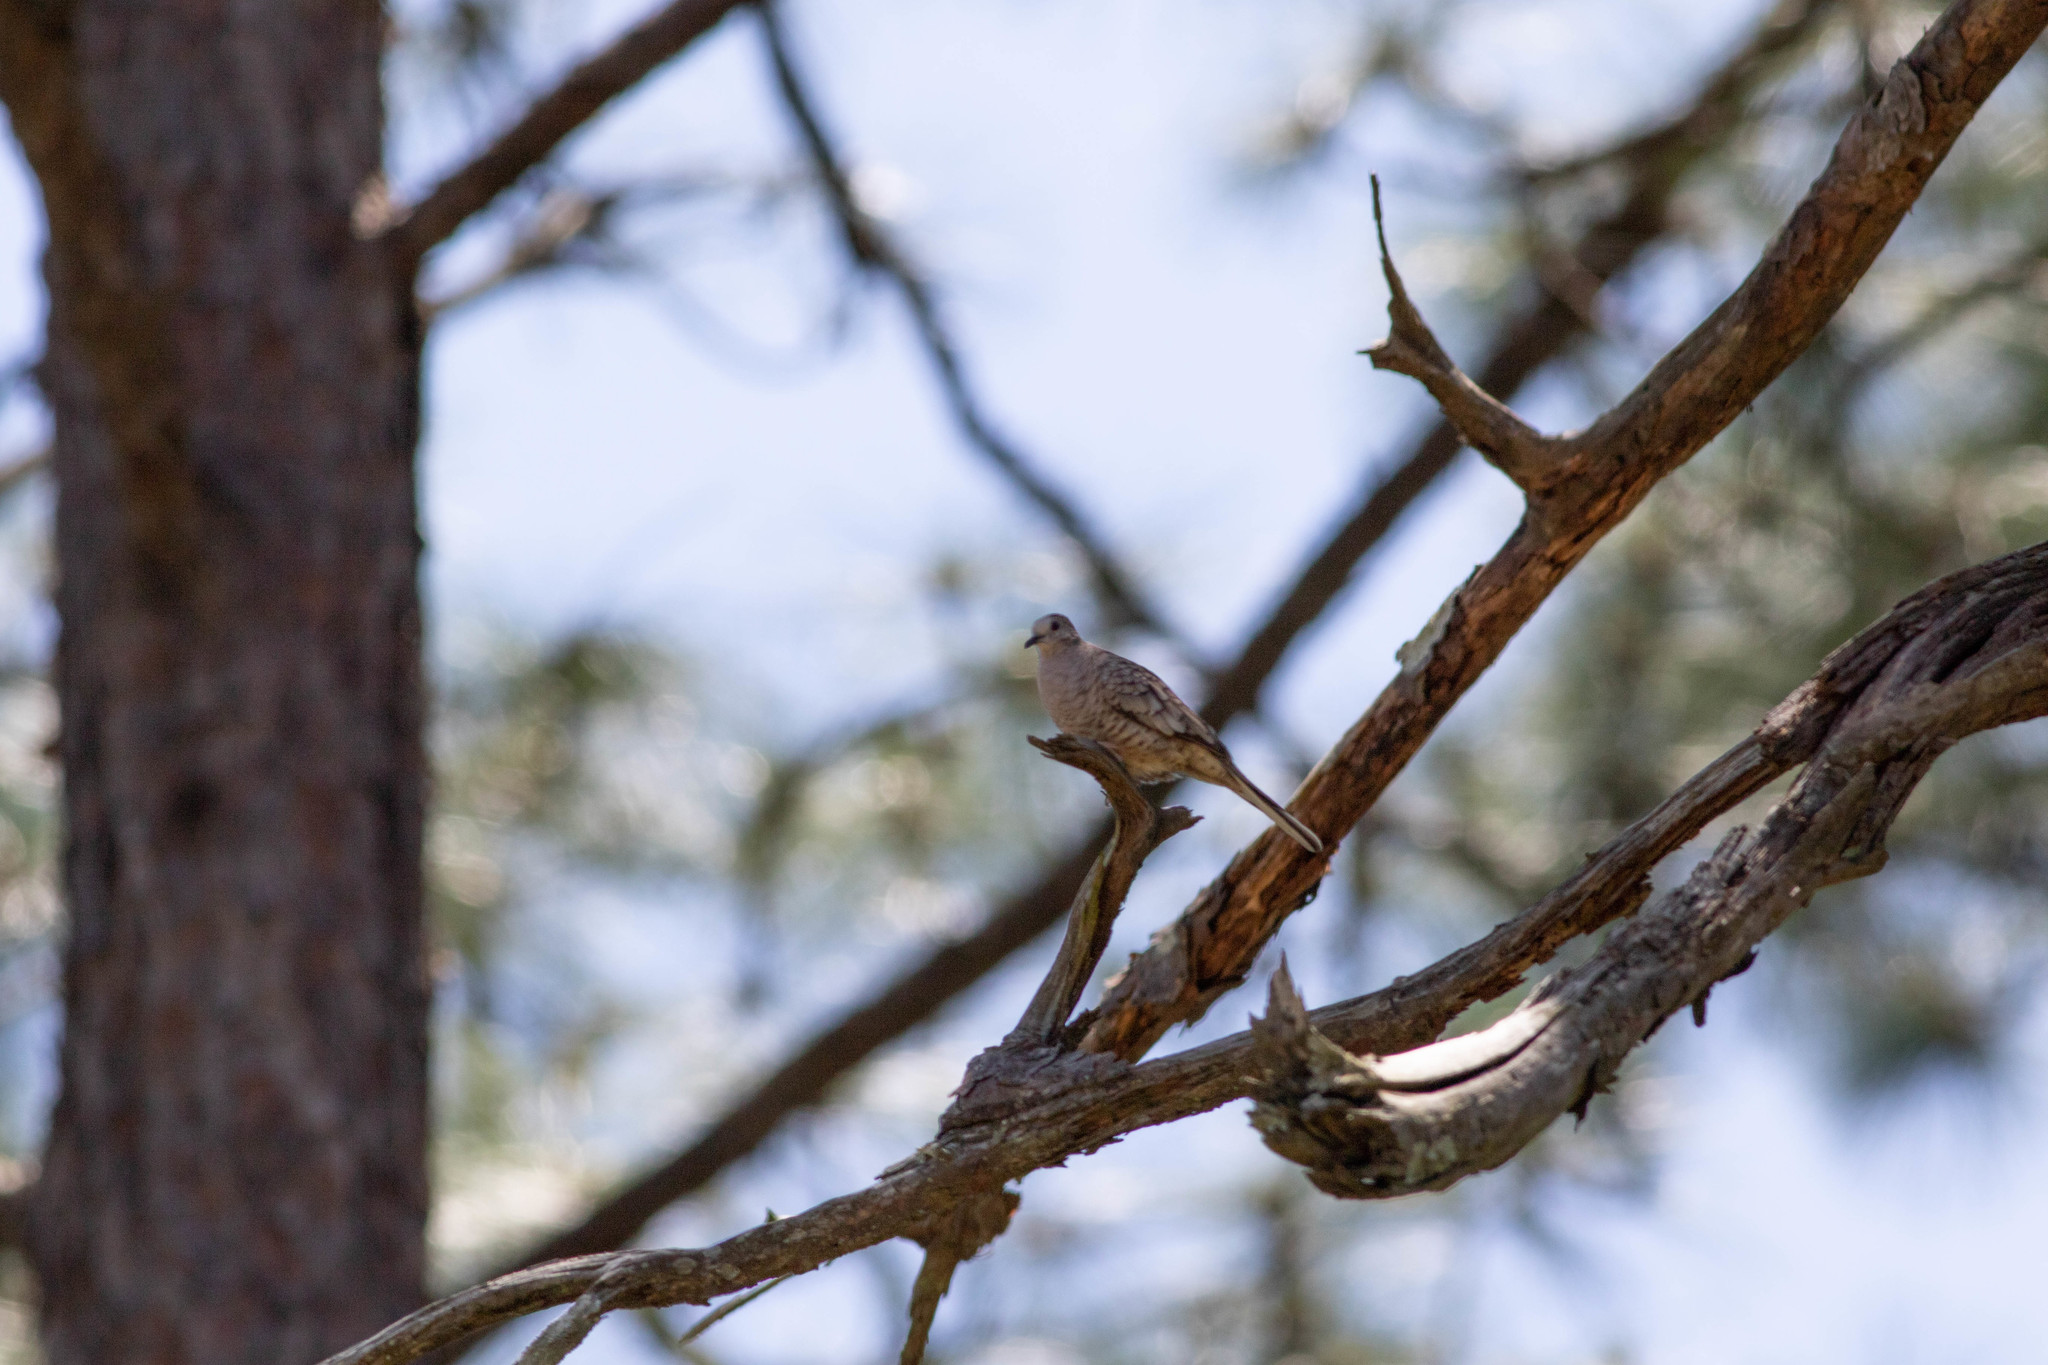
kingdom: Animalia
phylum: Chordata
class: Aves
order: Columbiformes
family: Columbidae
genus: Columbina
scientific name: Columbina inca
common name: Inca dove
